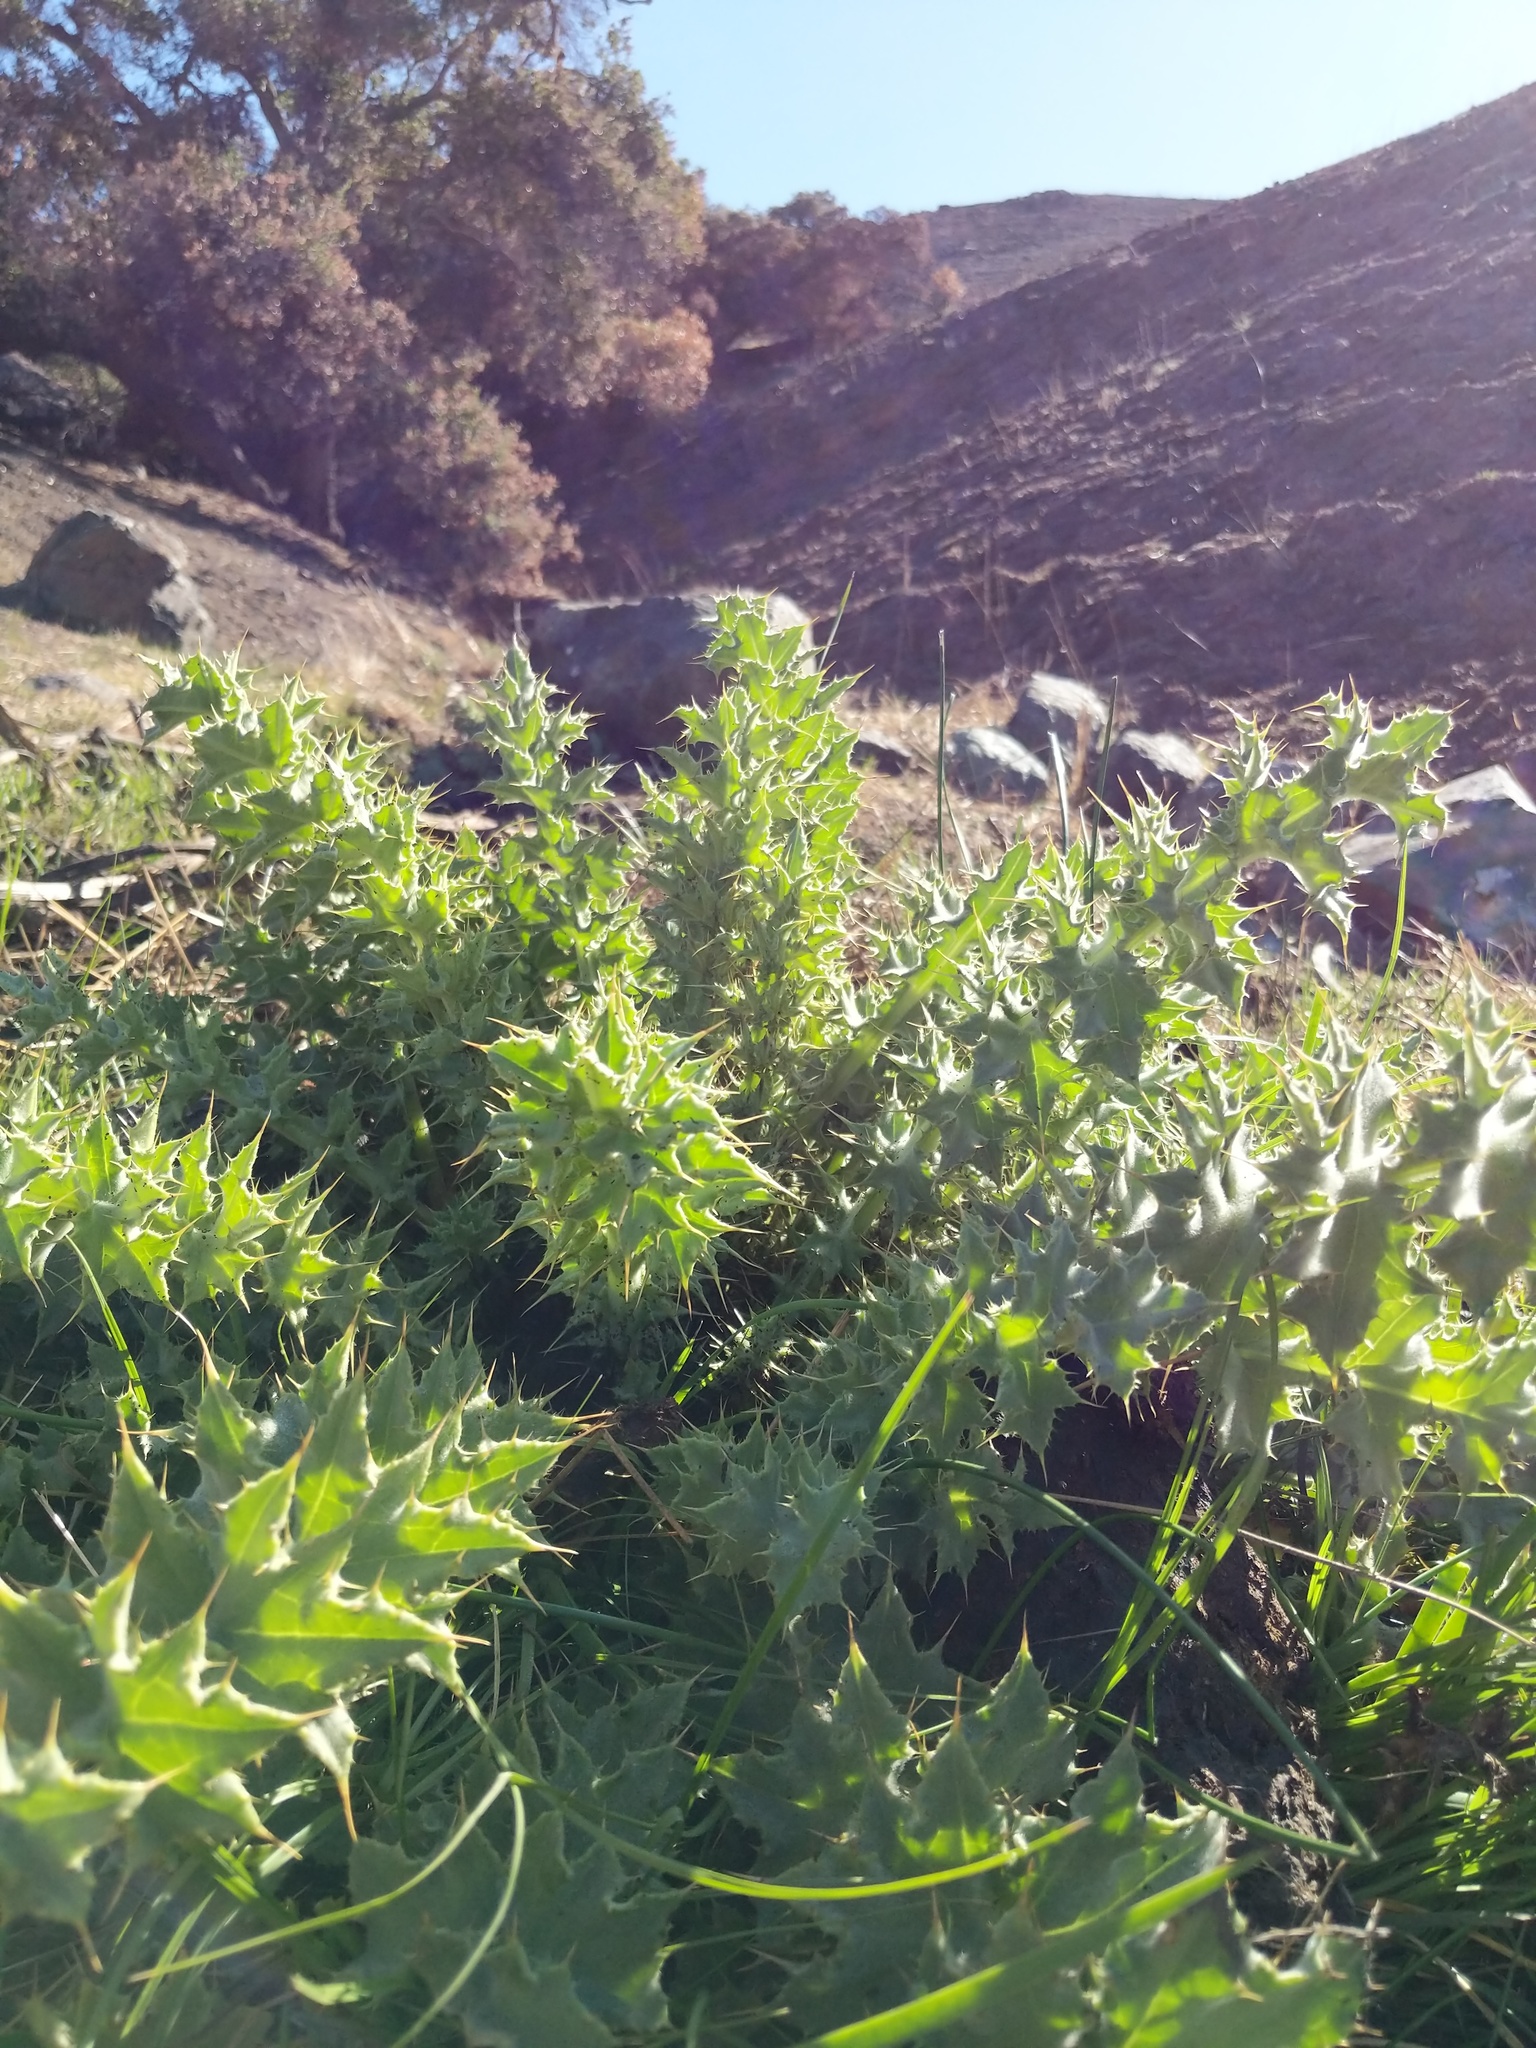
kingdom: Plantae
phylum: Tracheophyta
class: Magnoliopsida
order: Asterales
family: Asteraceae
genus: Cirsium
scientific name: Cirsium fontinale
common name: Fountain thistle
